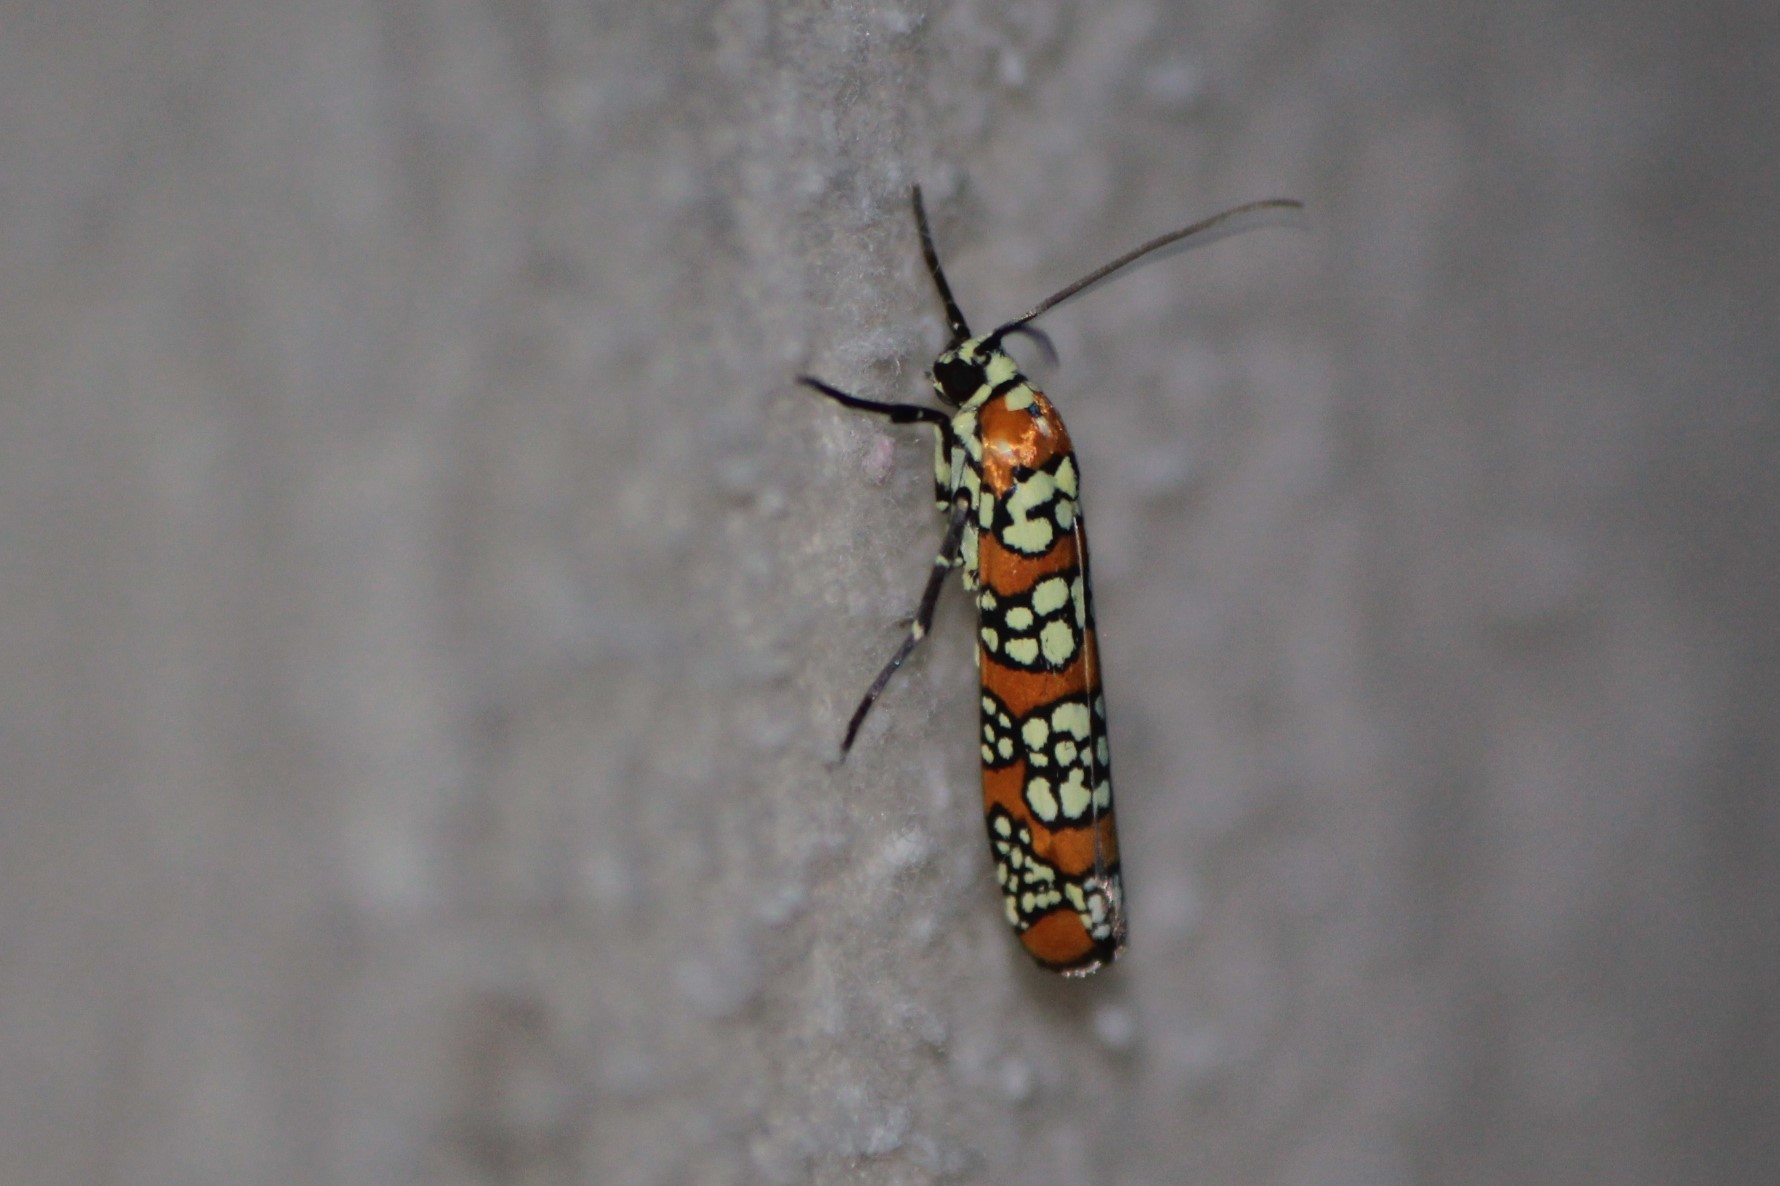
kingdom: Animalia
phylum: Arthropoda
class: Insecta
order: Lepidoptera
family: Attevidae
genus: Atteva
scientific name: Atteva punctella
